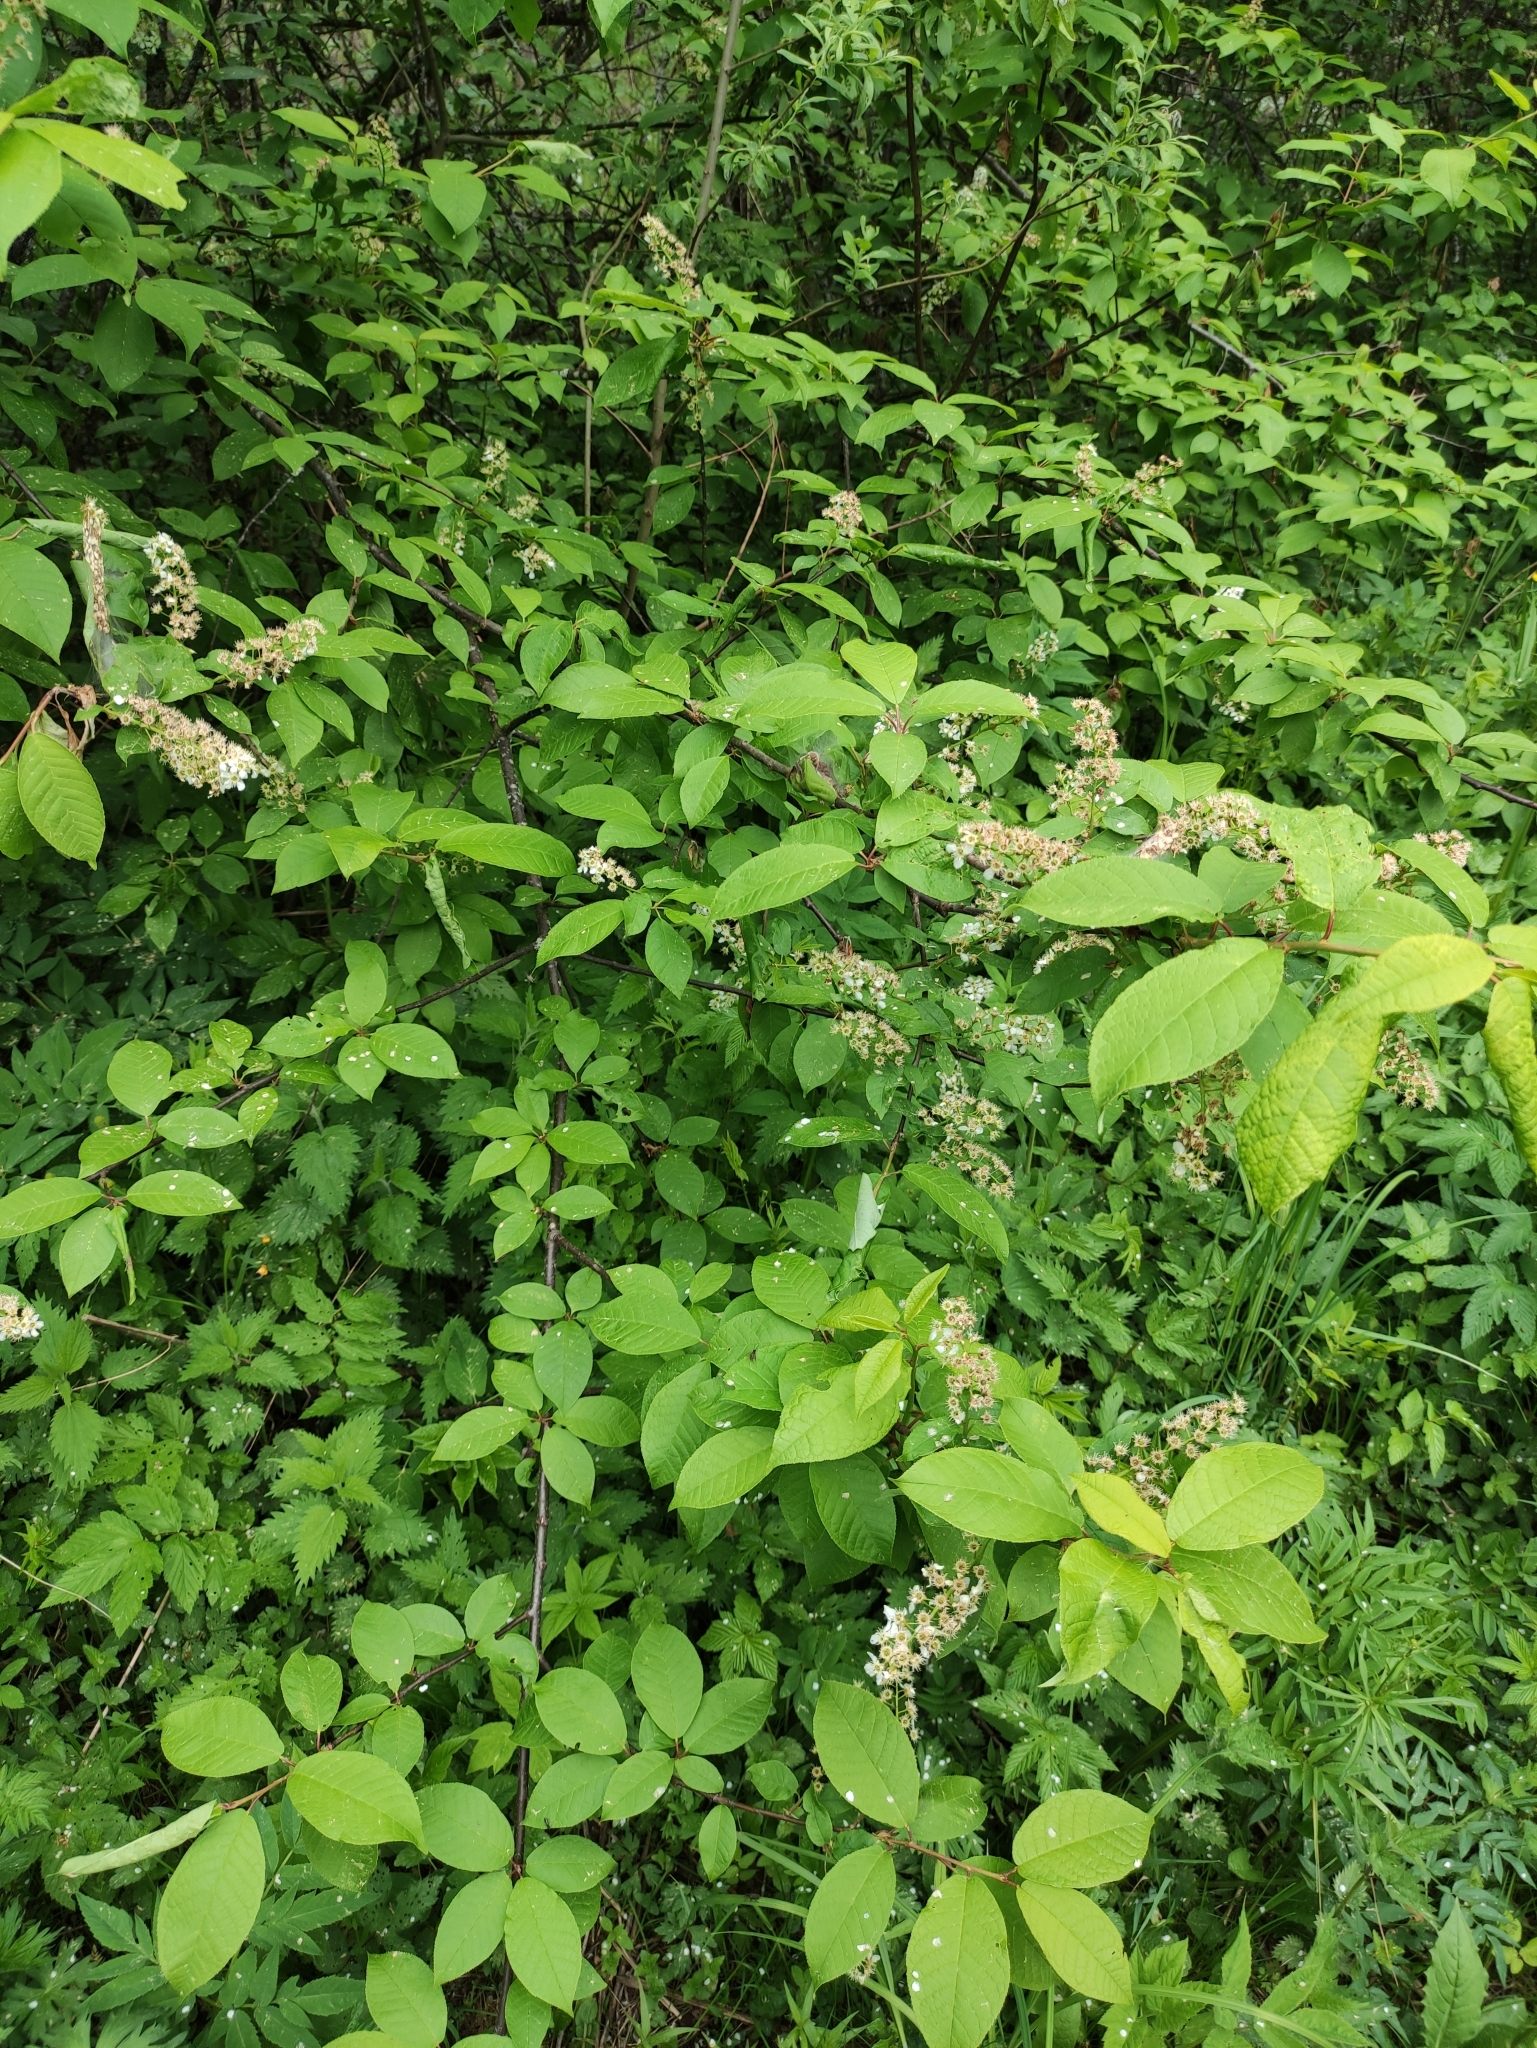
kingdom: Plantae
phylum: Tracheophyta
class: Magnoliopsida
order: Rosales
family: Rosaceae
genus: Prunus
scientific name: Prunus padus
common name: Bird cherry
